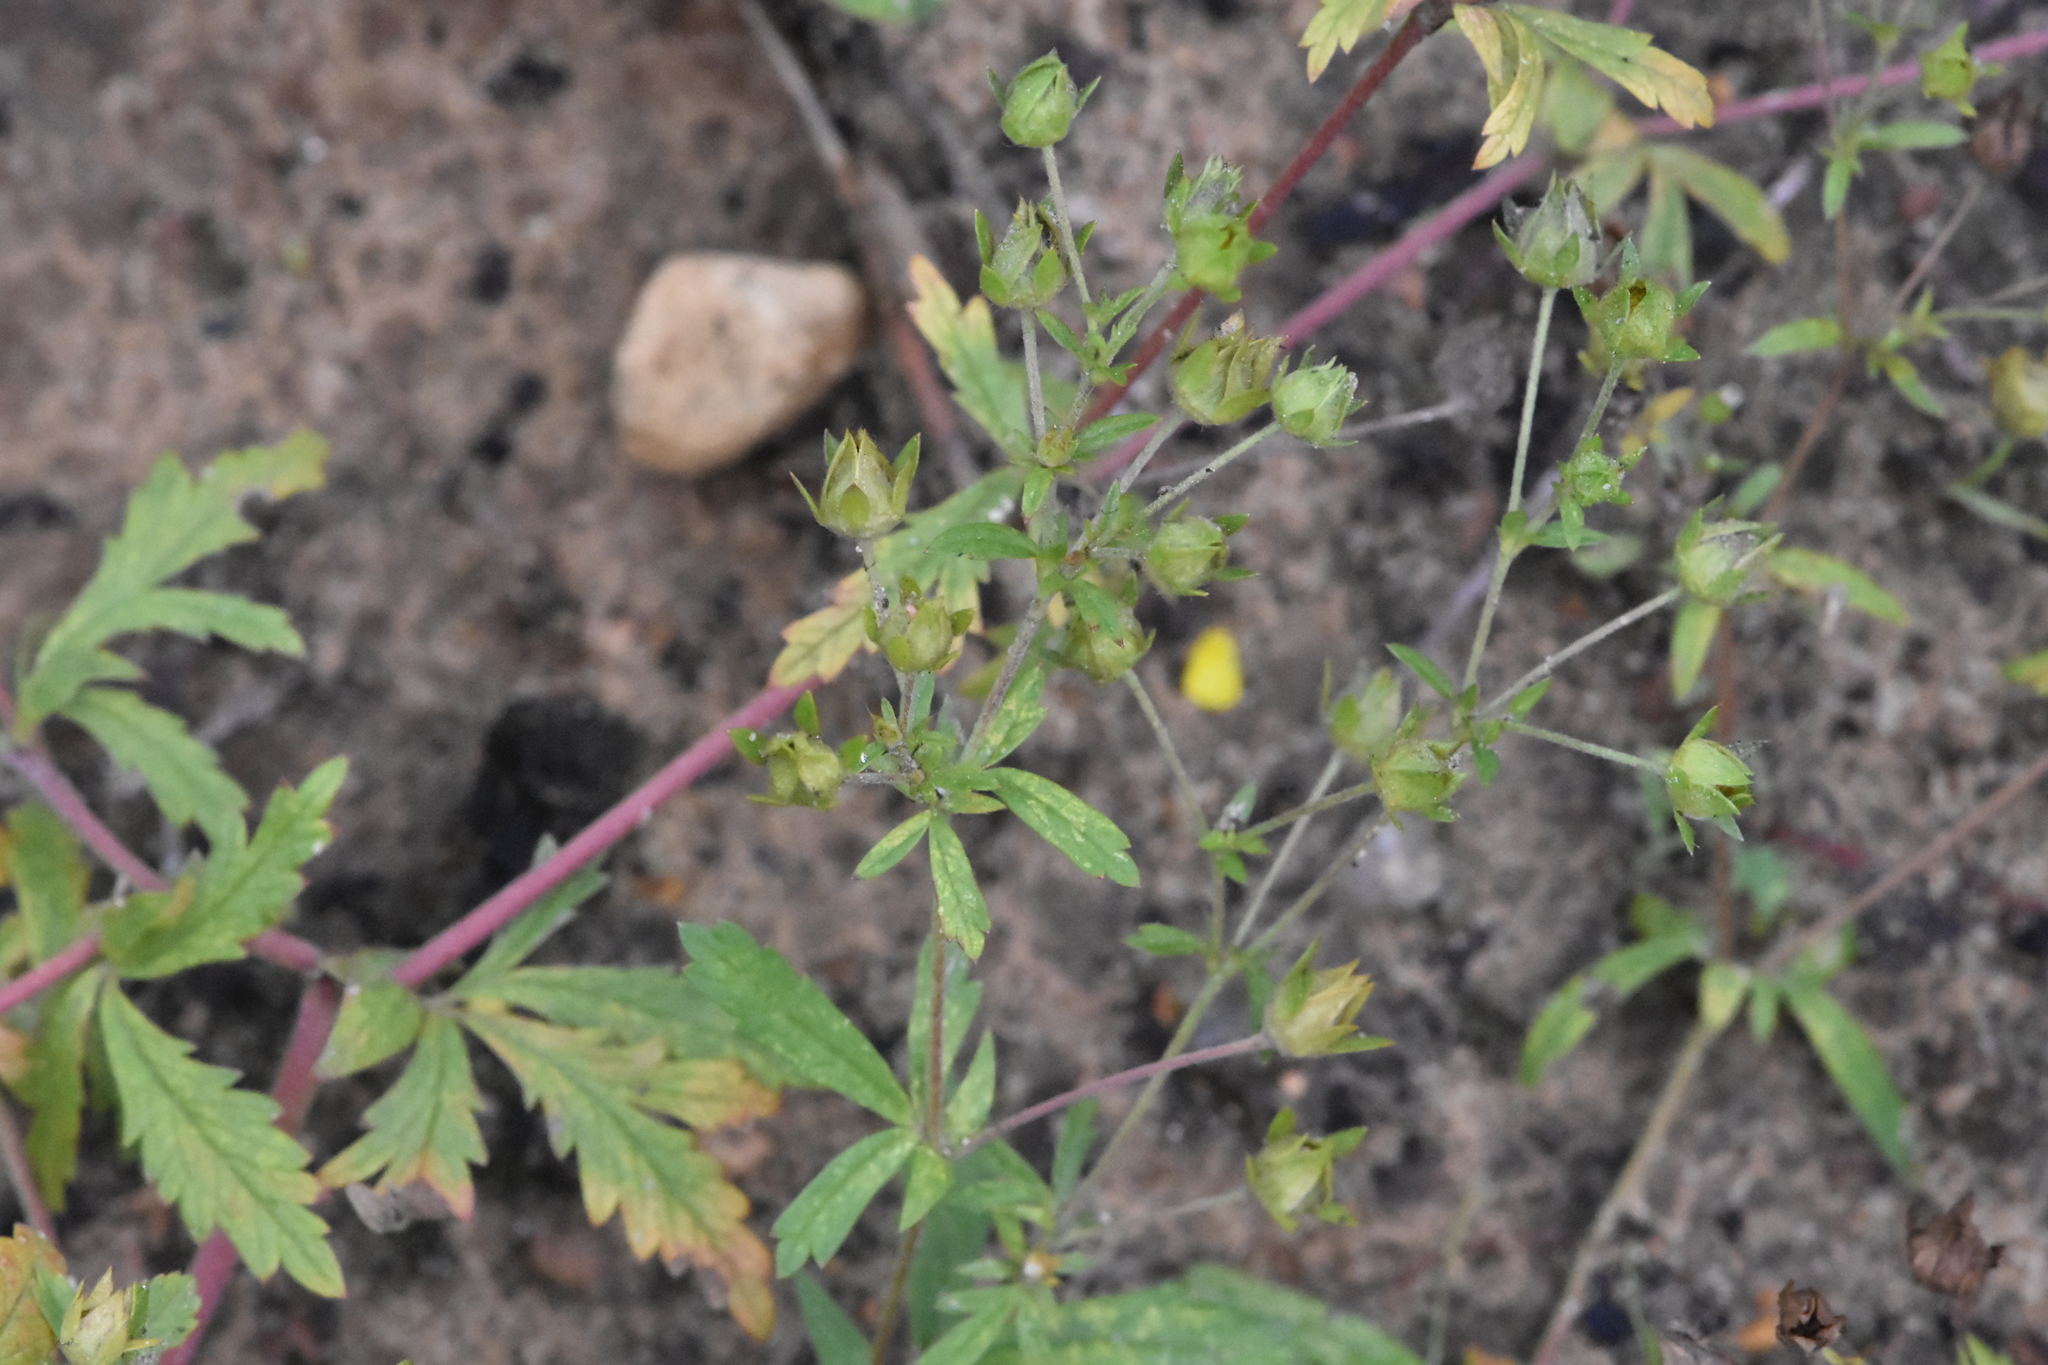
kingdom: Plantae
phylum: Tracheophyta
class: Magnoliopsida
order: Rosales
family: Rosaceae
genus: Potentilla
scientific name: Potentilla intermedia
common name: Downy cinquefoil
